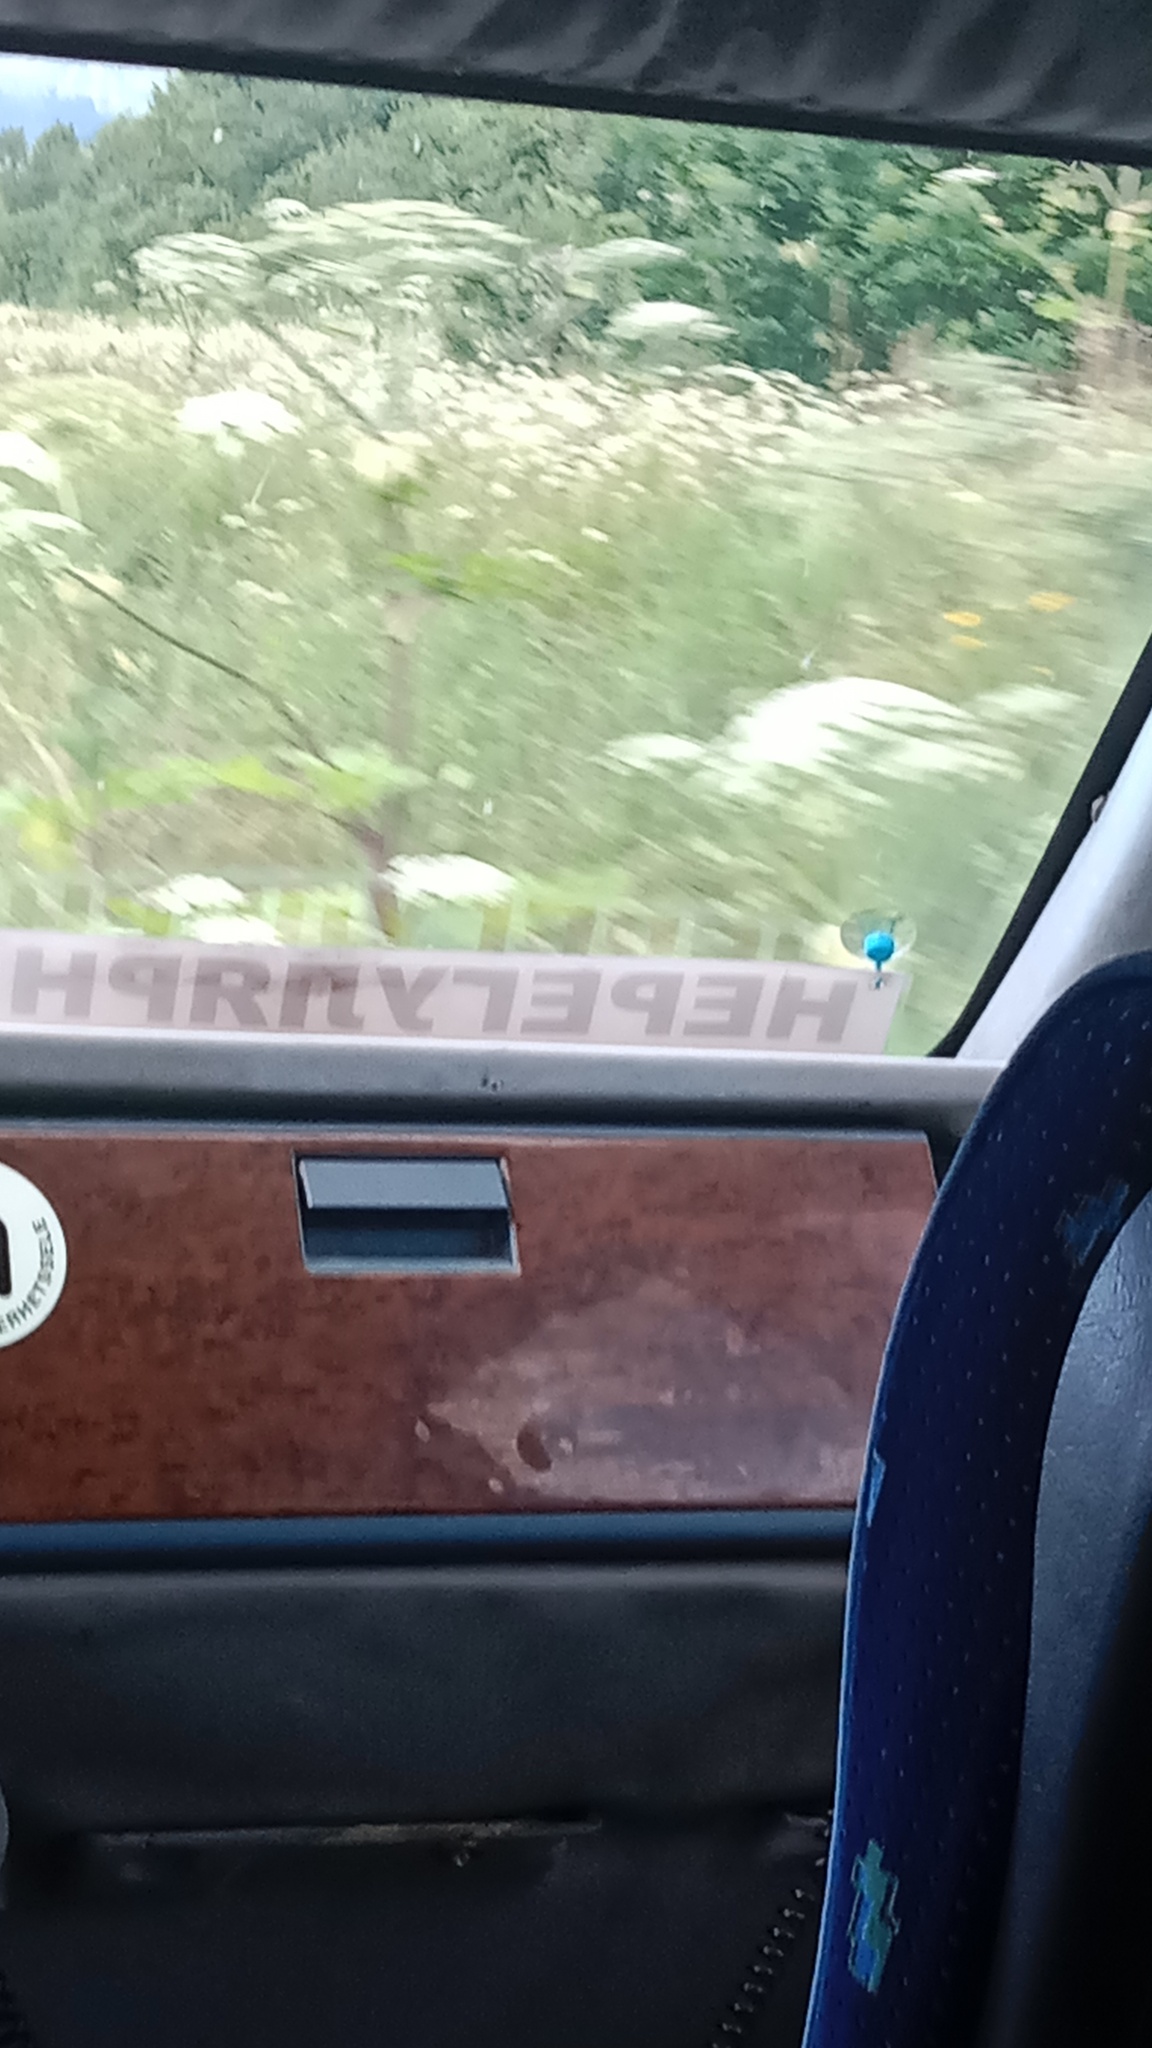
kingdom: Plantae
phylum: Tracheophyta
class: Magnoliopsida
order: Apiales
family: Apiaceae
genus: Heracleum
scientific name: Heracleum sosnowskyi
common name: Sosnowsky's hogweed
